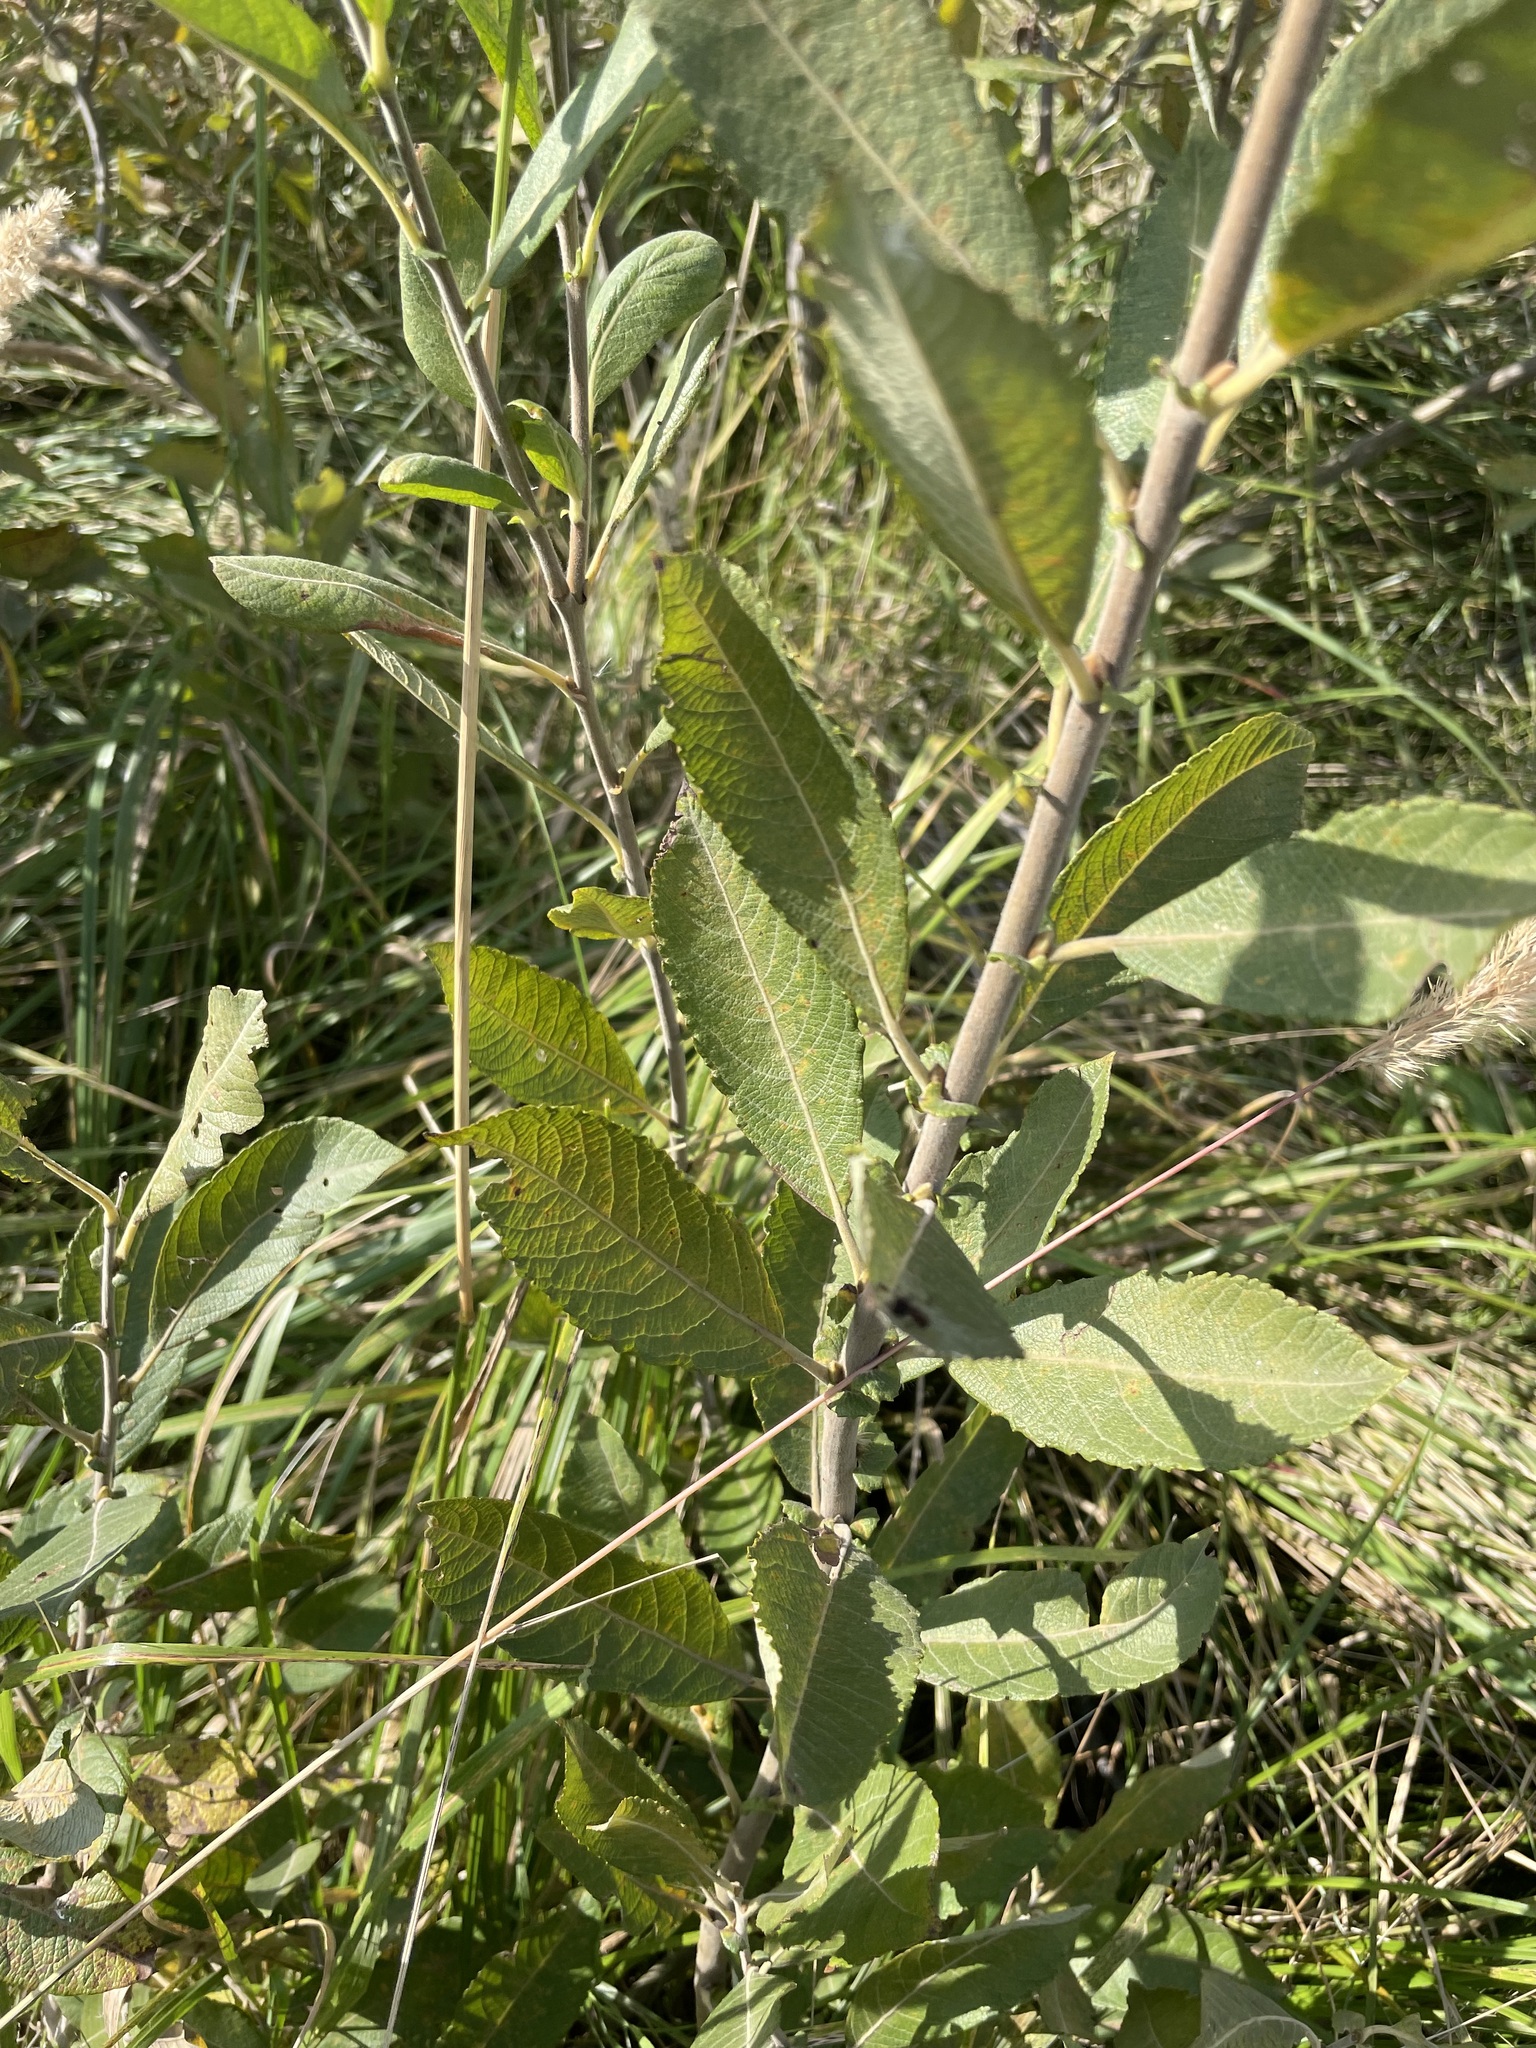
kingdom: Plantae
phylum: Tracheophyta
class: Magnoliopsida
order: Malpighiales
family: Salicaceae
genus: Salix
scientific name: Salix cinerea
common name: Common sallow
